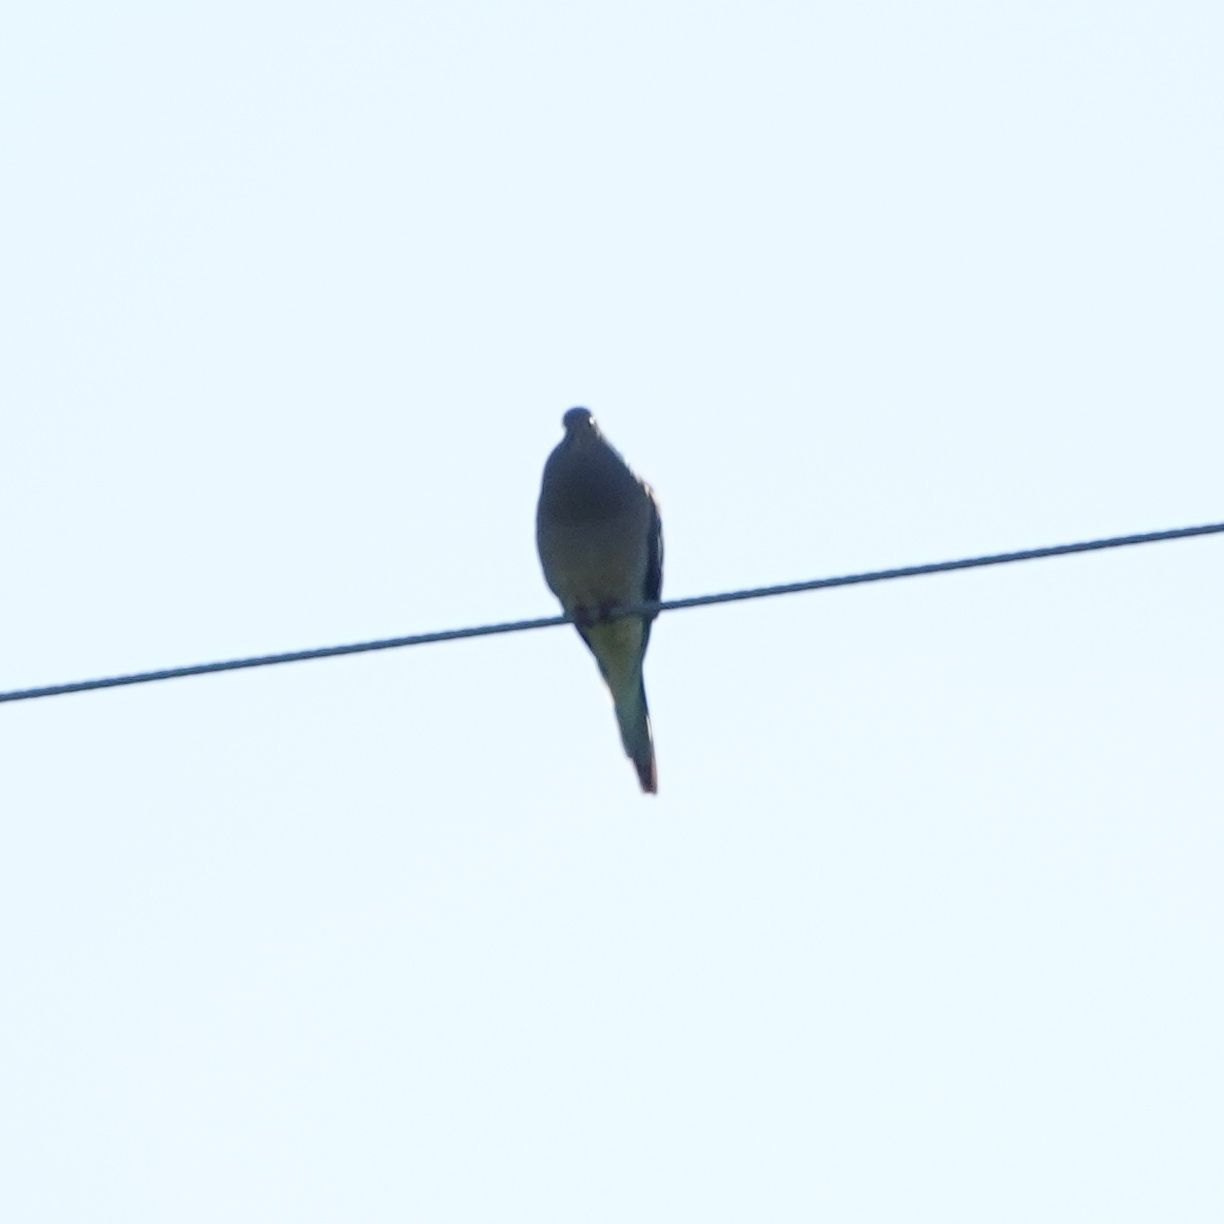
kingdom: Animalia
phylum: Chordata
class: Aves
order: Columbiformes
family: Columbidae
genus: Zenaida
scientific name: Zenaida macroura
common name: Mourning dove
